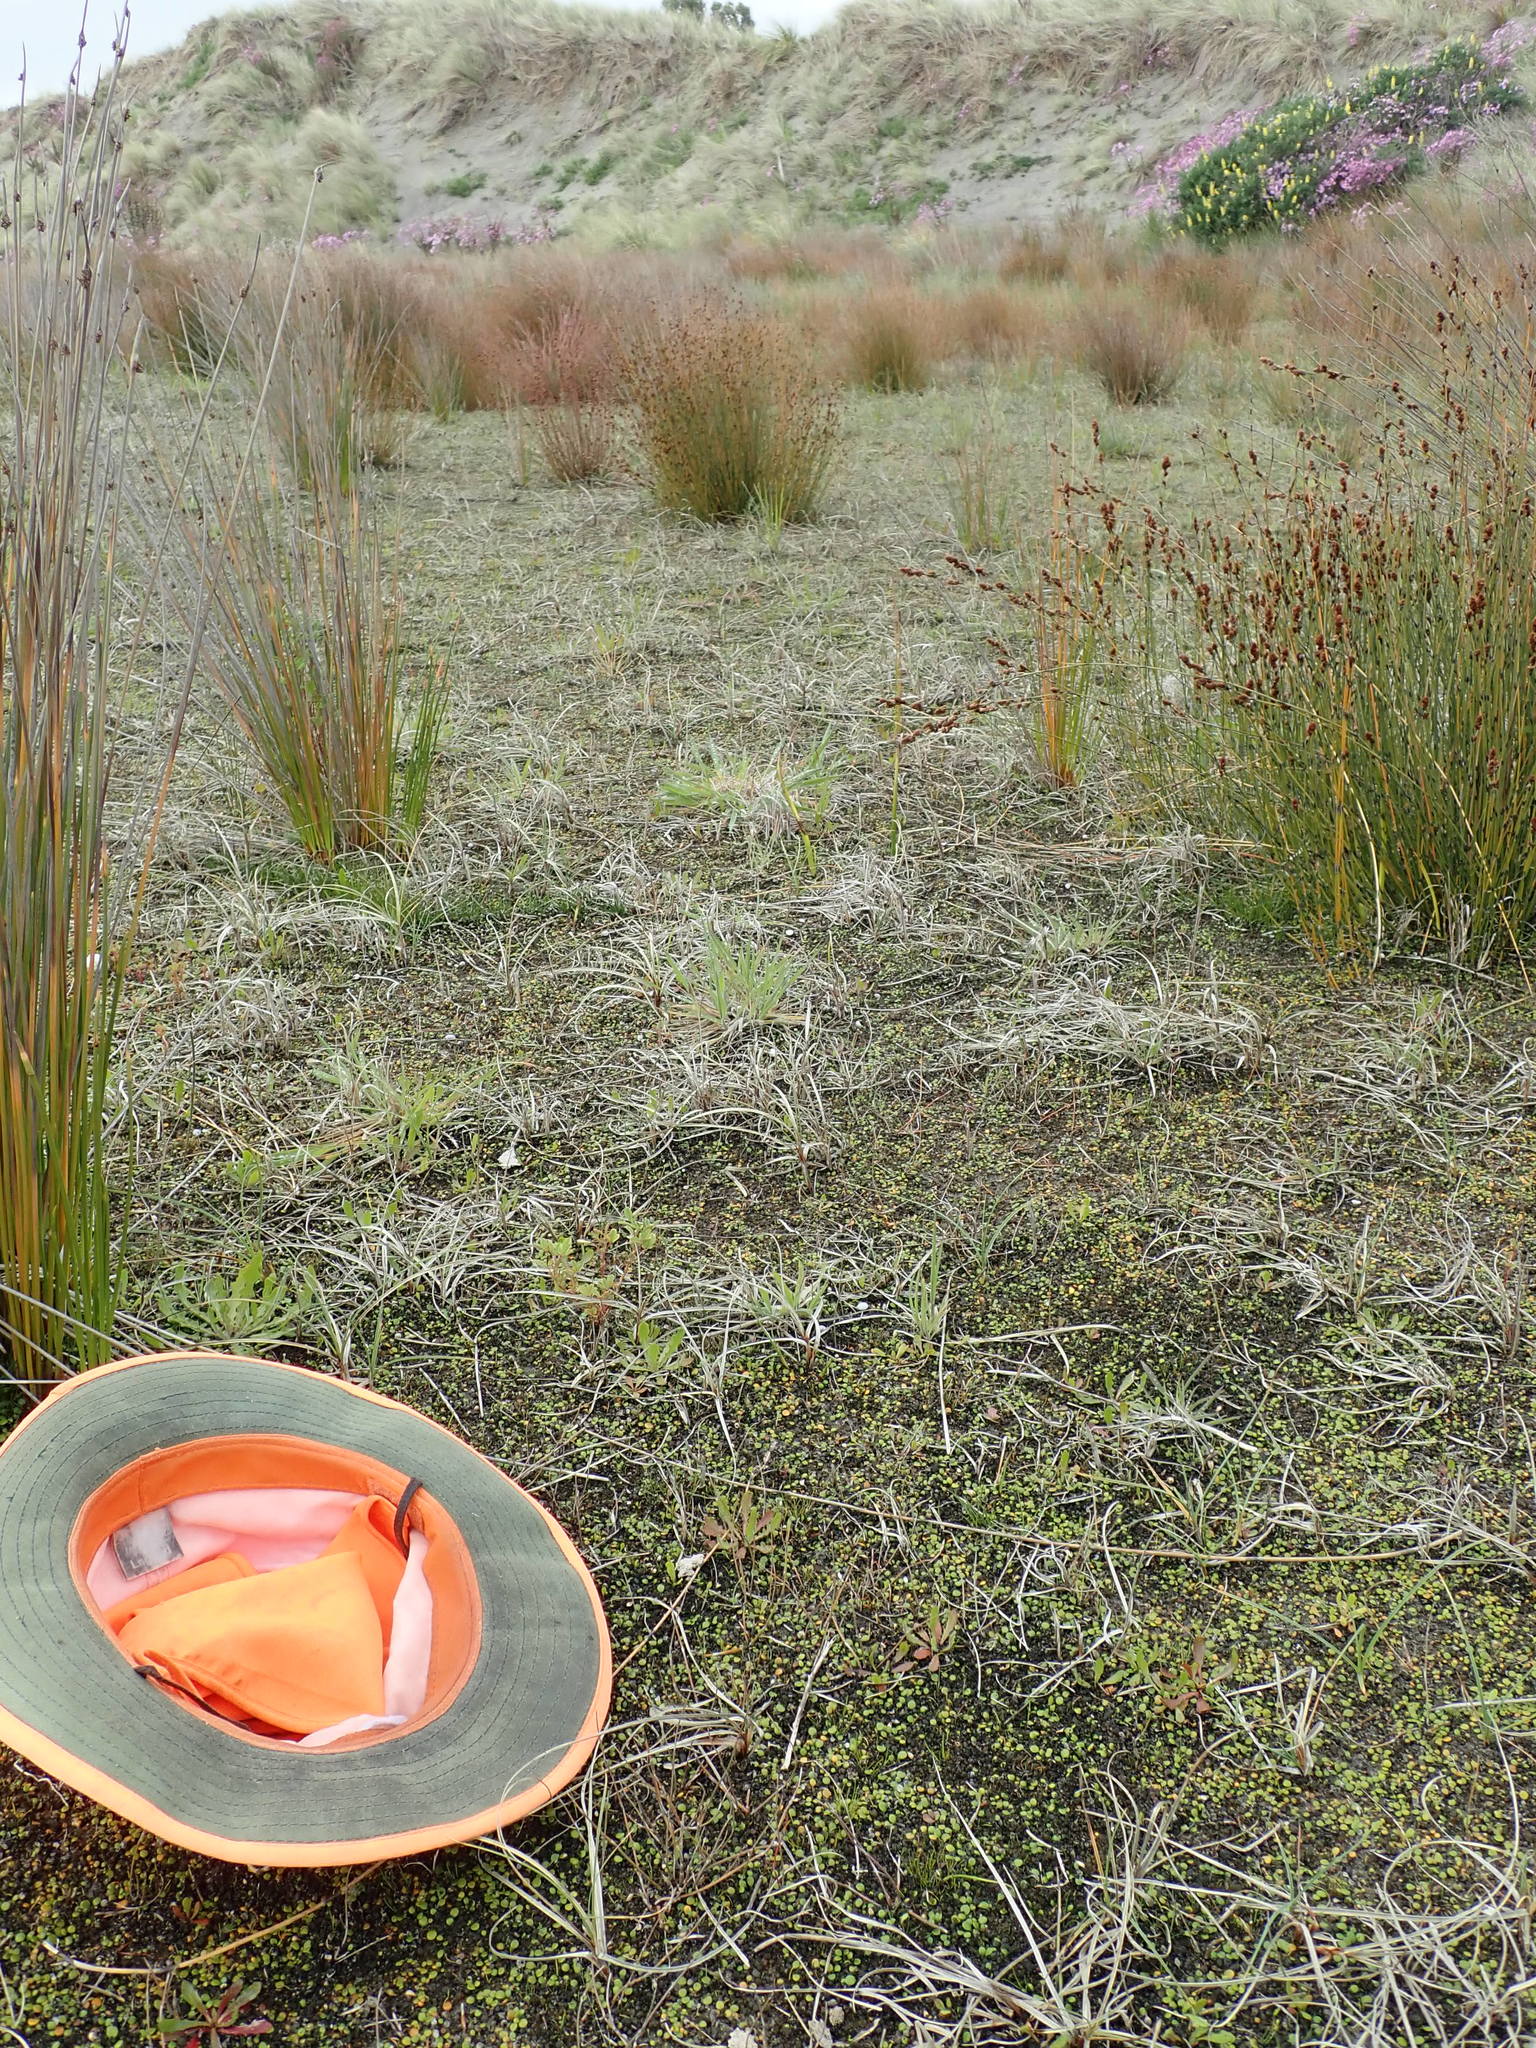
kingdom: Bacteria
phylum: Cyanobacteria
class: Cyanobacteriia
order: Cyanobacteriales
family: Nostocaceae
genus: Nostoc
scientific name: Nostoc commune
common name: Star jelly
